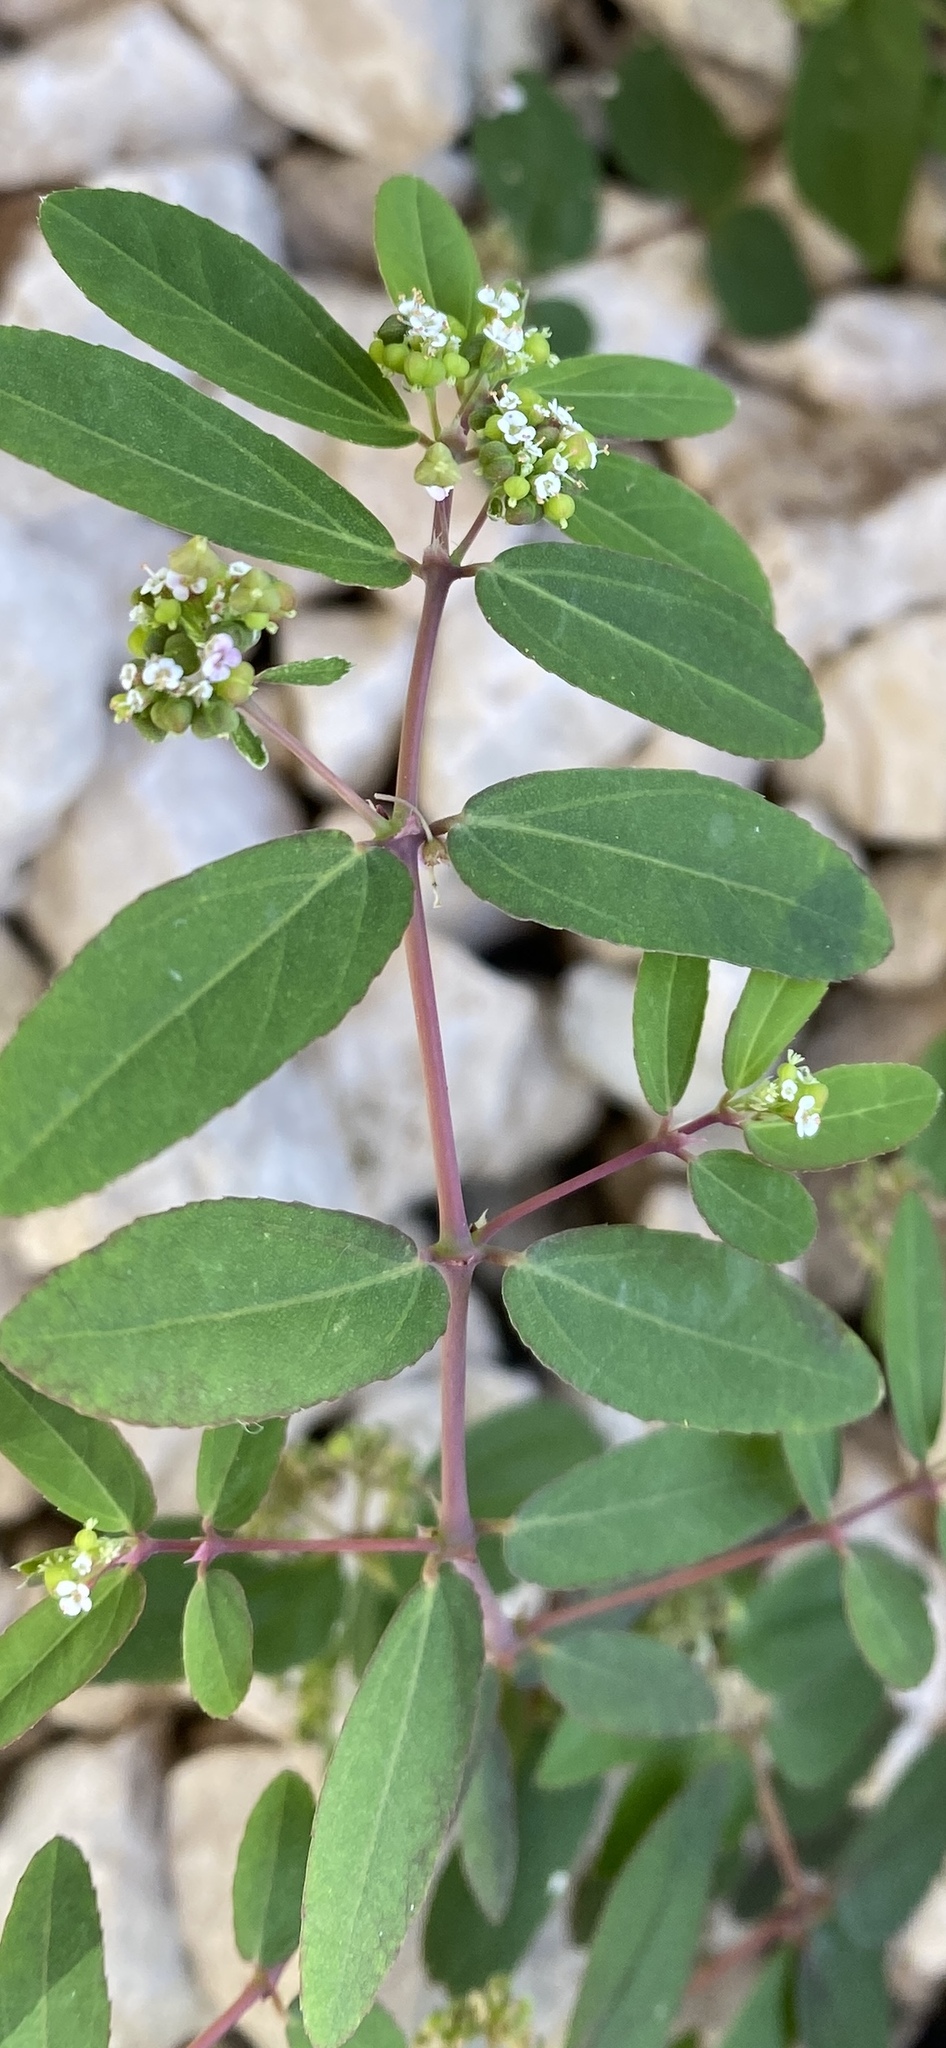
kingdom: Plantae
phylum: Tracheophyta
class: Magnoliopsida
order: Malpighiales
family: Euphorbiaceae
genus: Euphorbia
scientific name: Euphorbia hypericifolia
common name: Graceful sandmat
